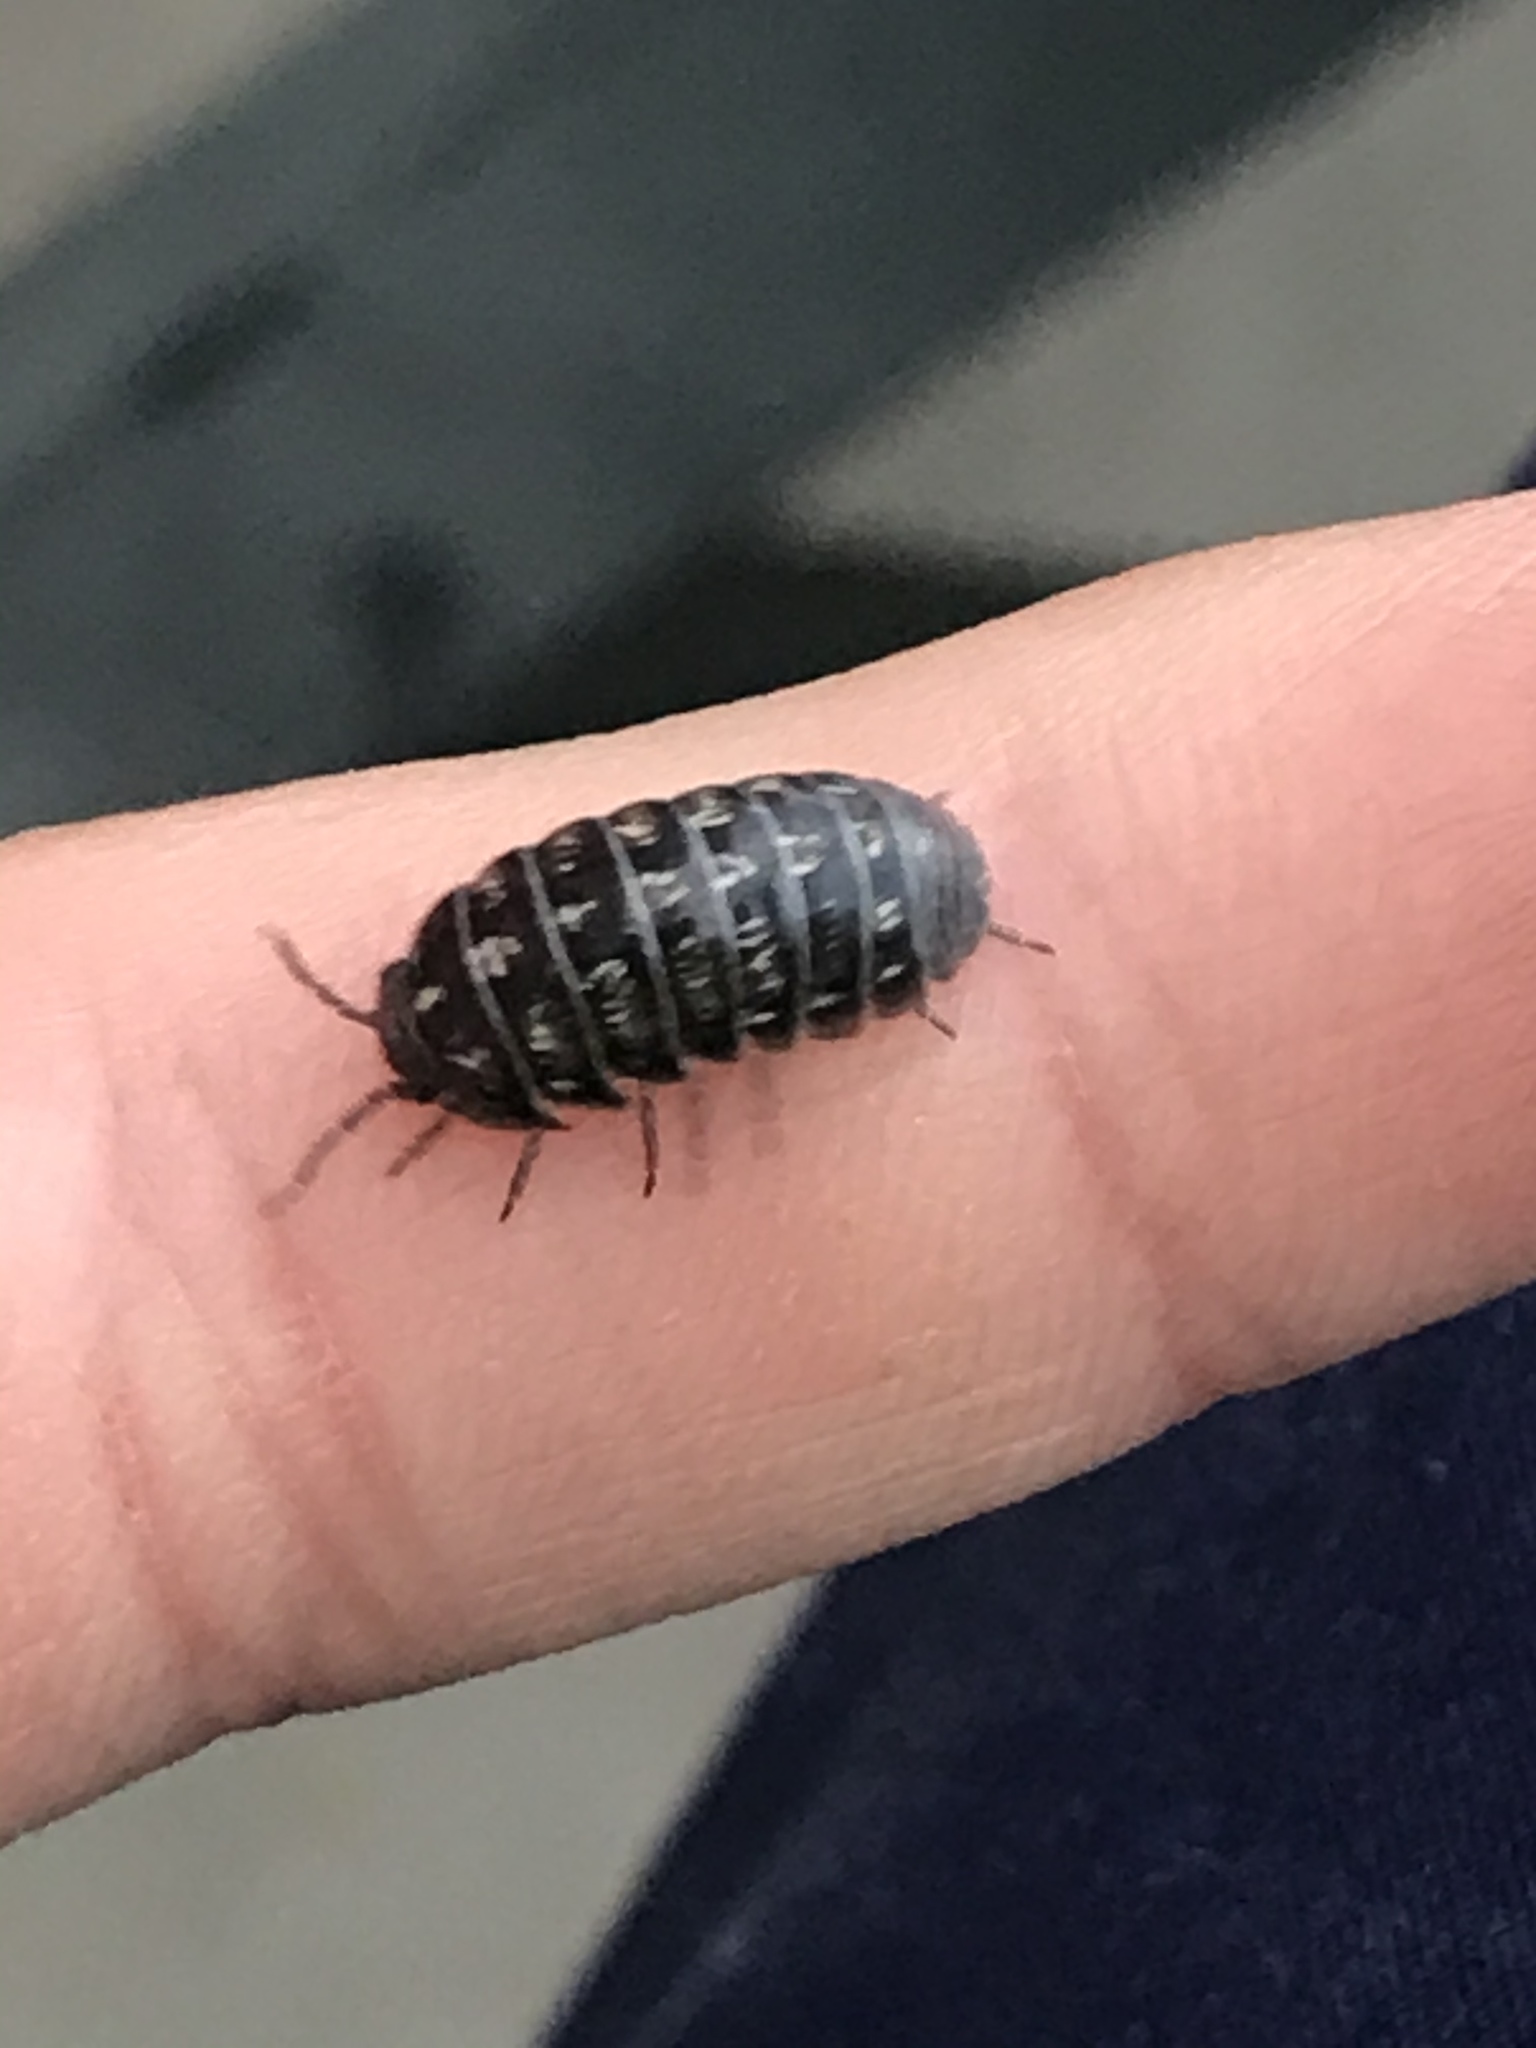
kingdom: Animalia
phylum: Arthropoda
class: Malacostraca
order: Isopoda
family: Armadillidiidae
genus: Armadillidium
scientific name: Armadillidium vulgare
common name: Common pill woodlouse
